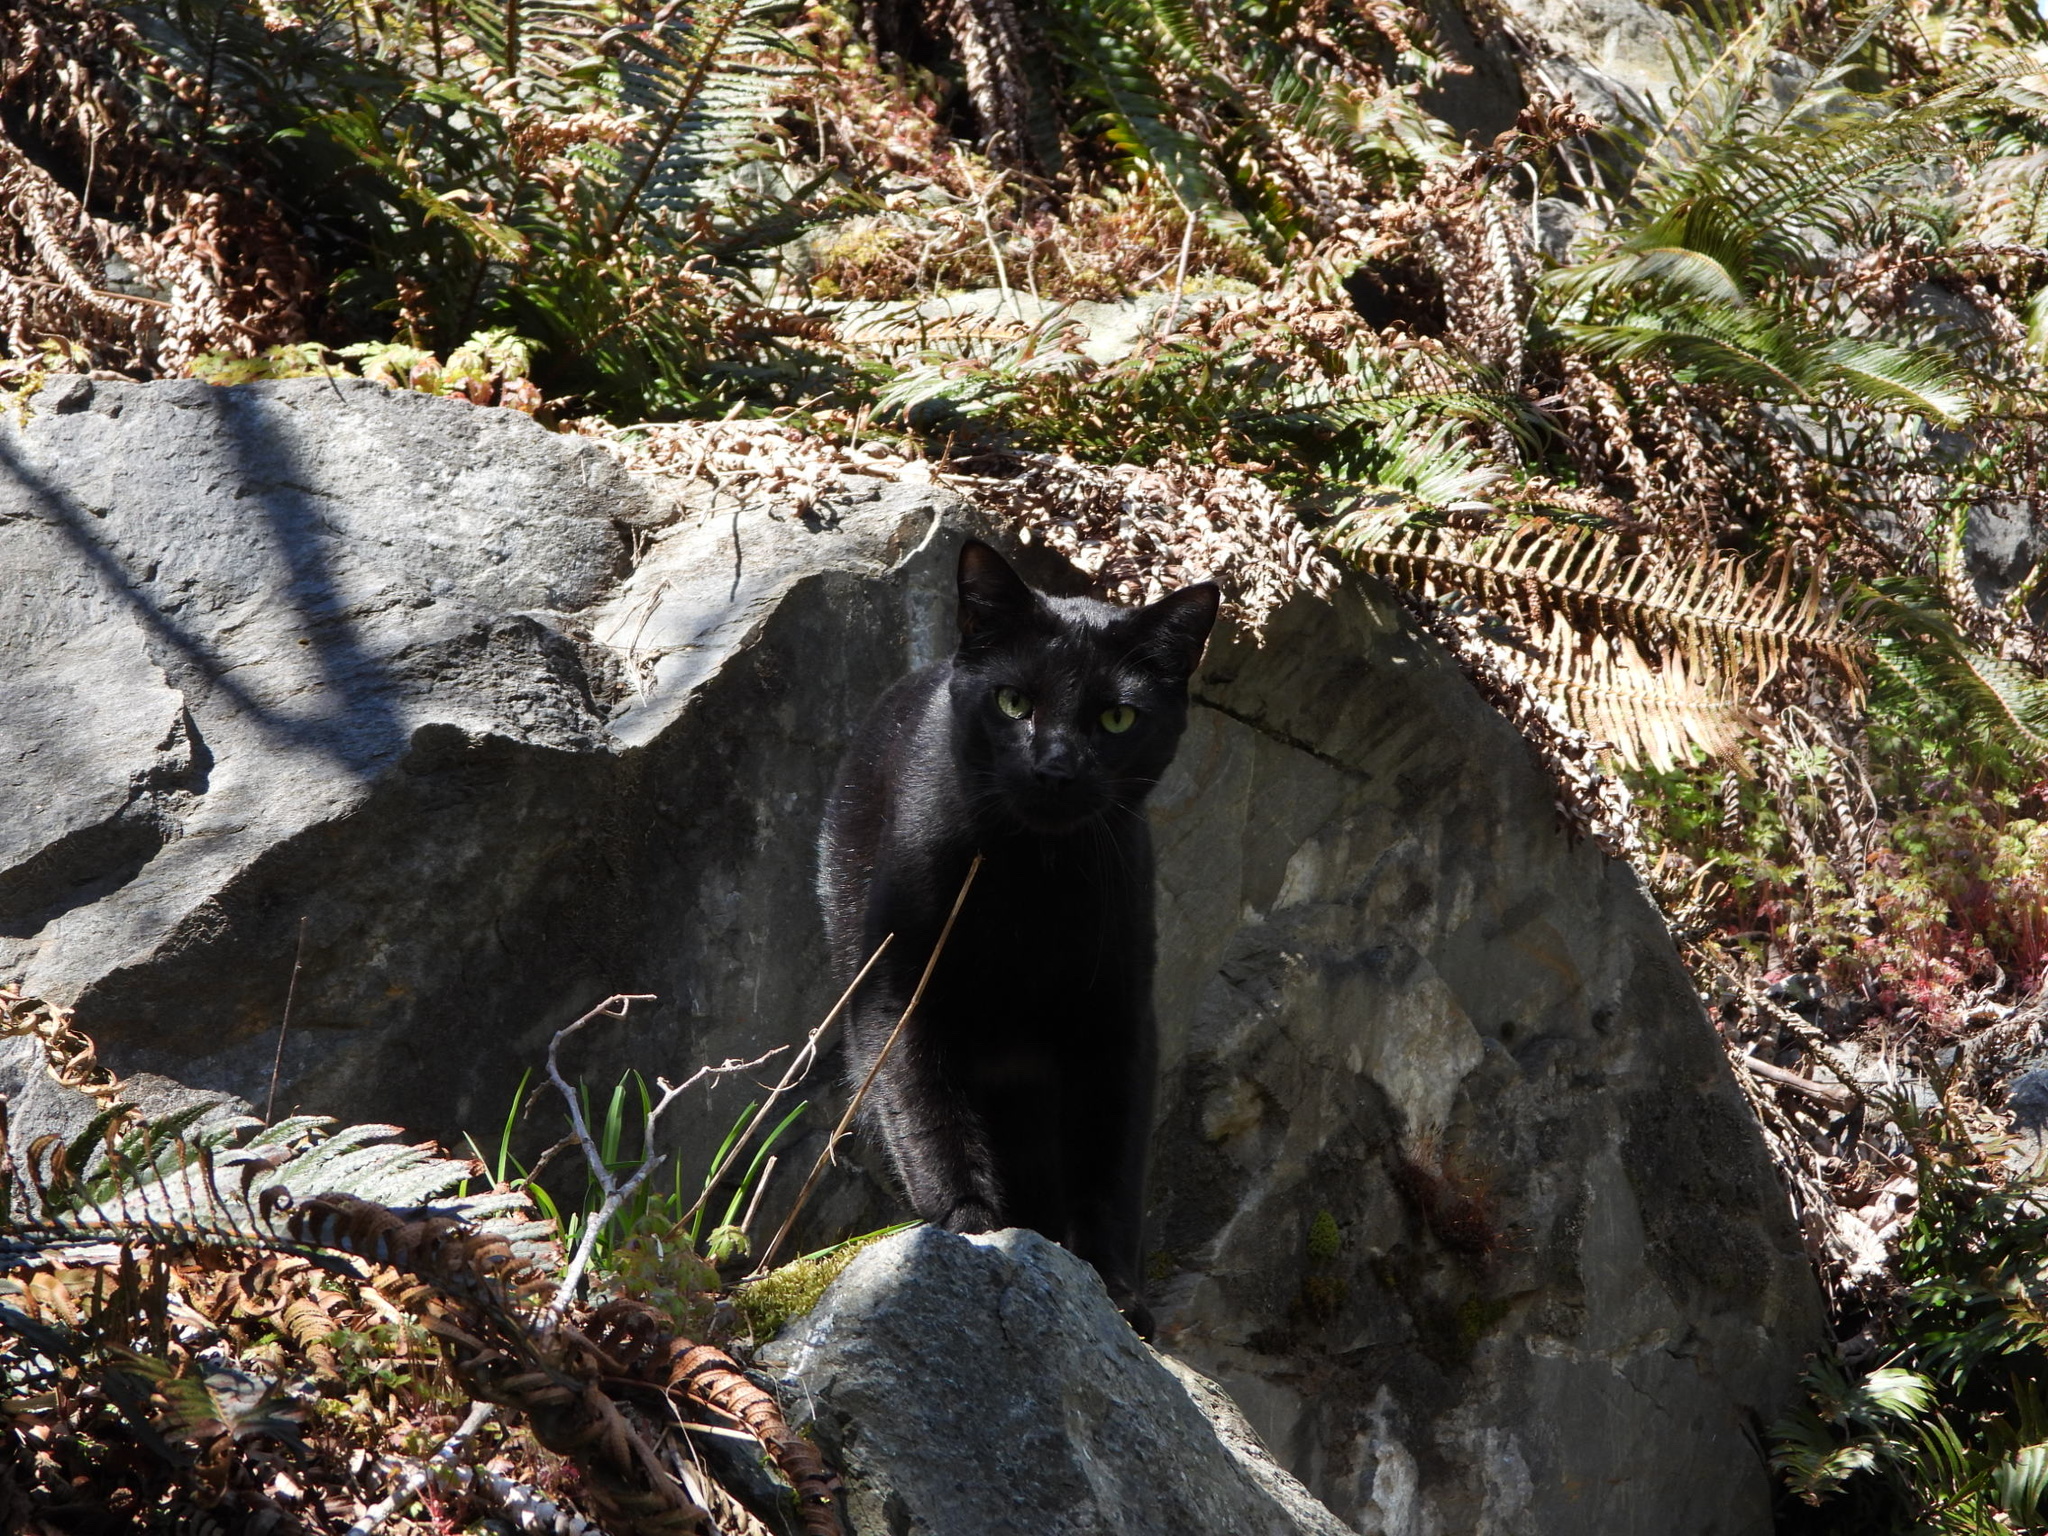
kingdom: Animalia
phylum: Chordata
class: Mammalia
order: Carnivora
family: Felidae
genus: Felis
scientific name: Felis catus
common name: Domestic cat
